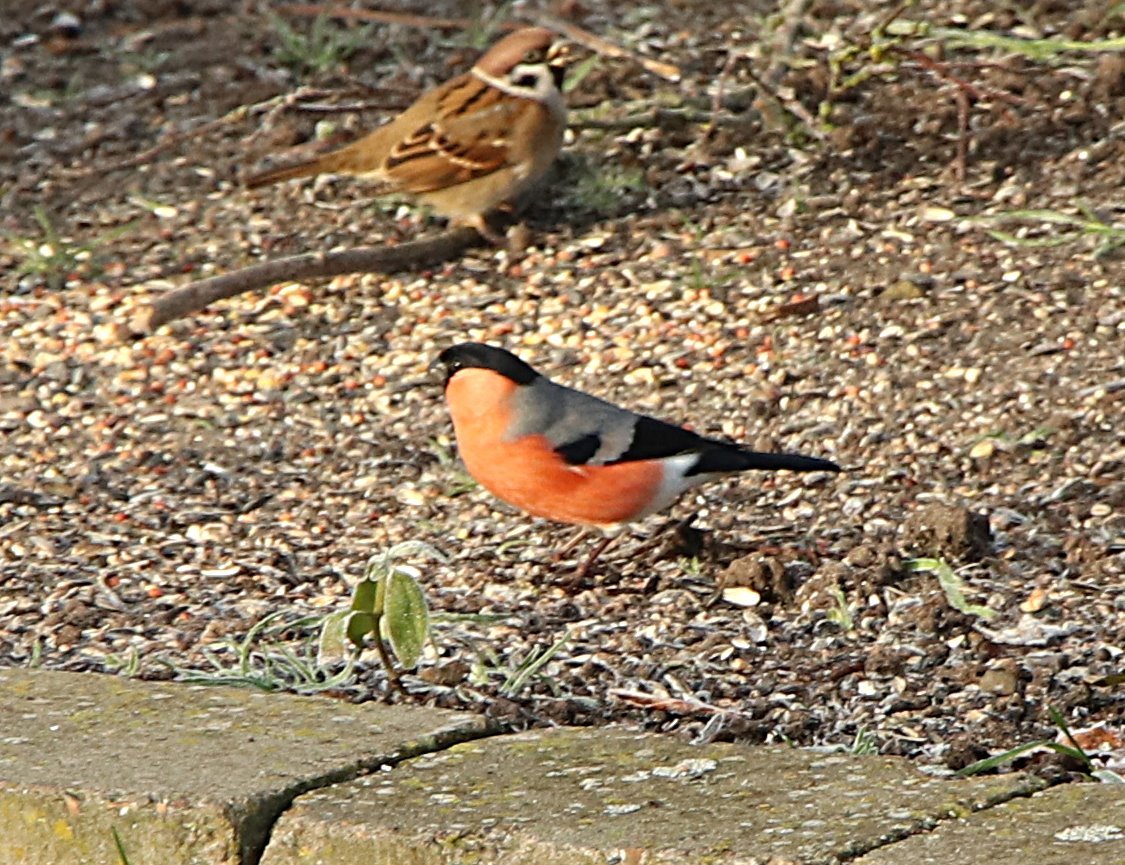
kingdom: Animalia
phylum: Chordata
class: Aves
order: Passeriformes
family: Fringillidae
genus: Pyrrhula
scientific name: Pyrrhula pyrrhula
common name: Eurasian bullfinch
